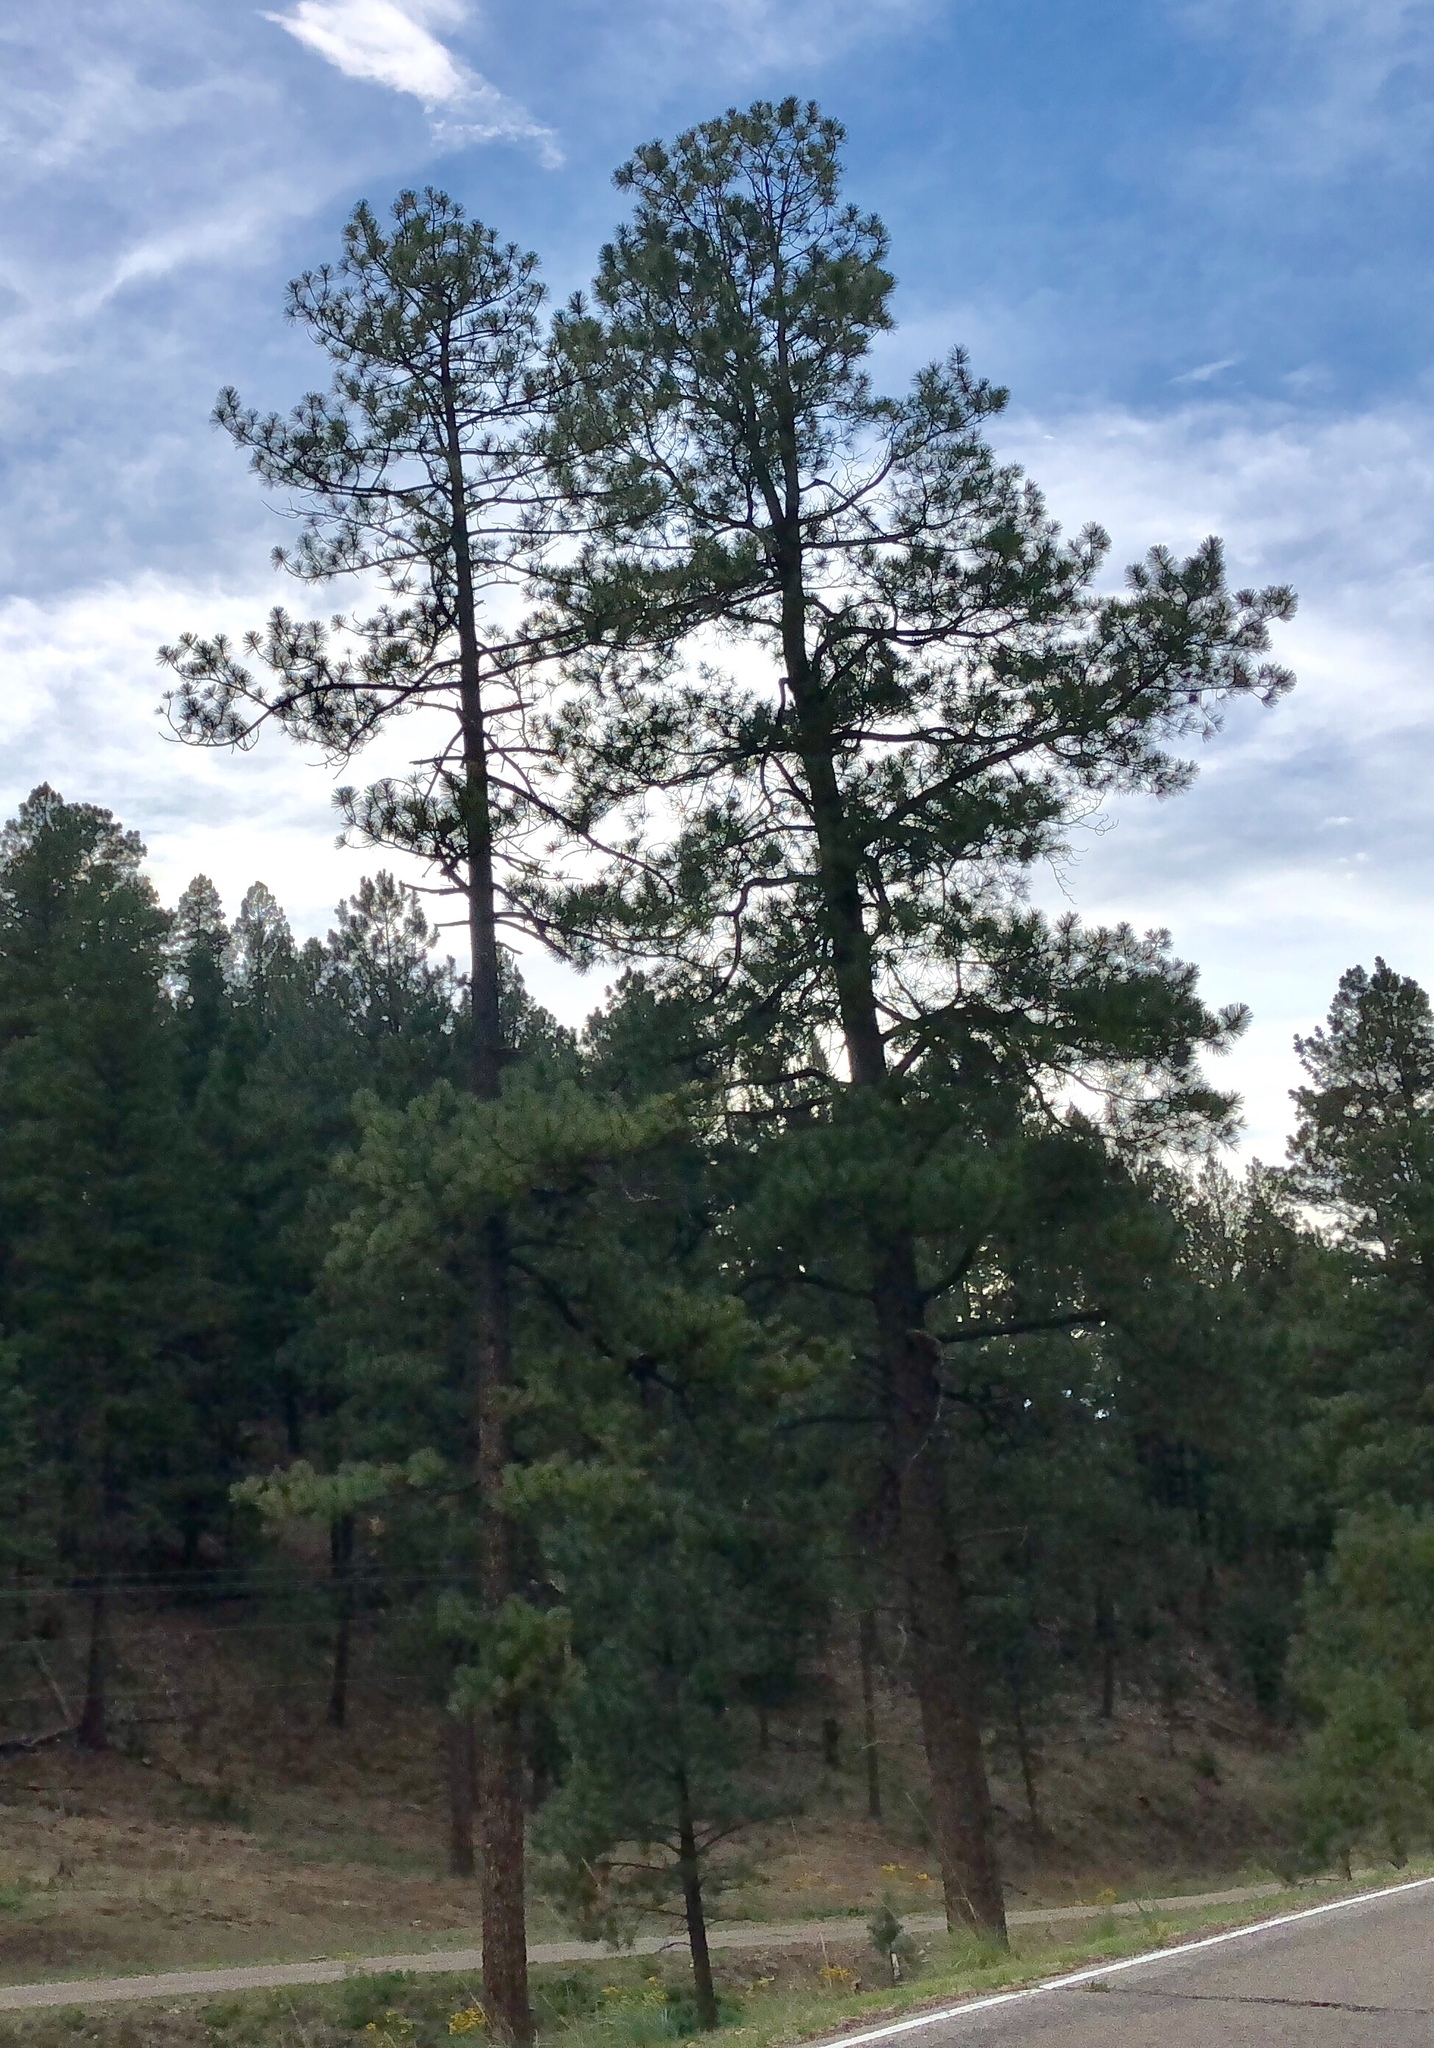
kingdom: Plantae
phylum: Tracheophyta
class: Pinopsida
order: Pinales
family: Pinaceae
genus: Pinus
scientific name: Pinus ponderosa
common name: Western yellow-pine
